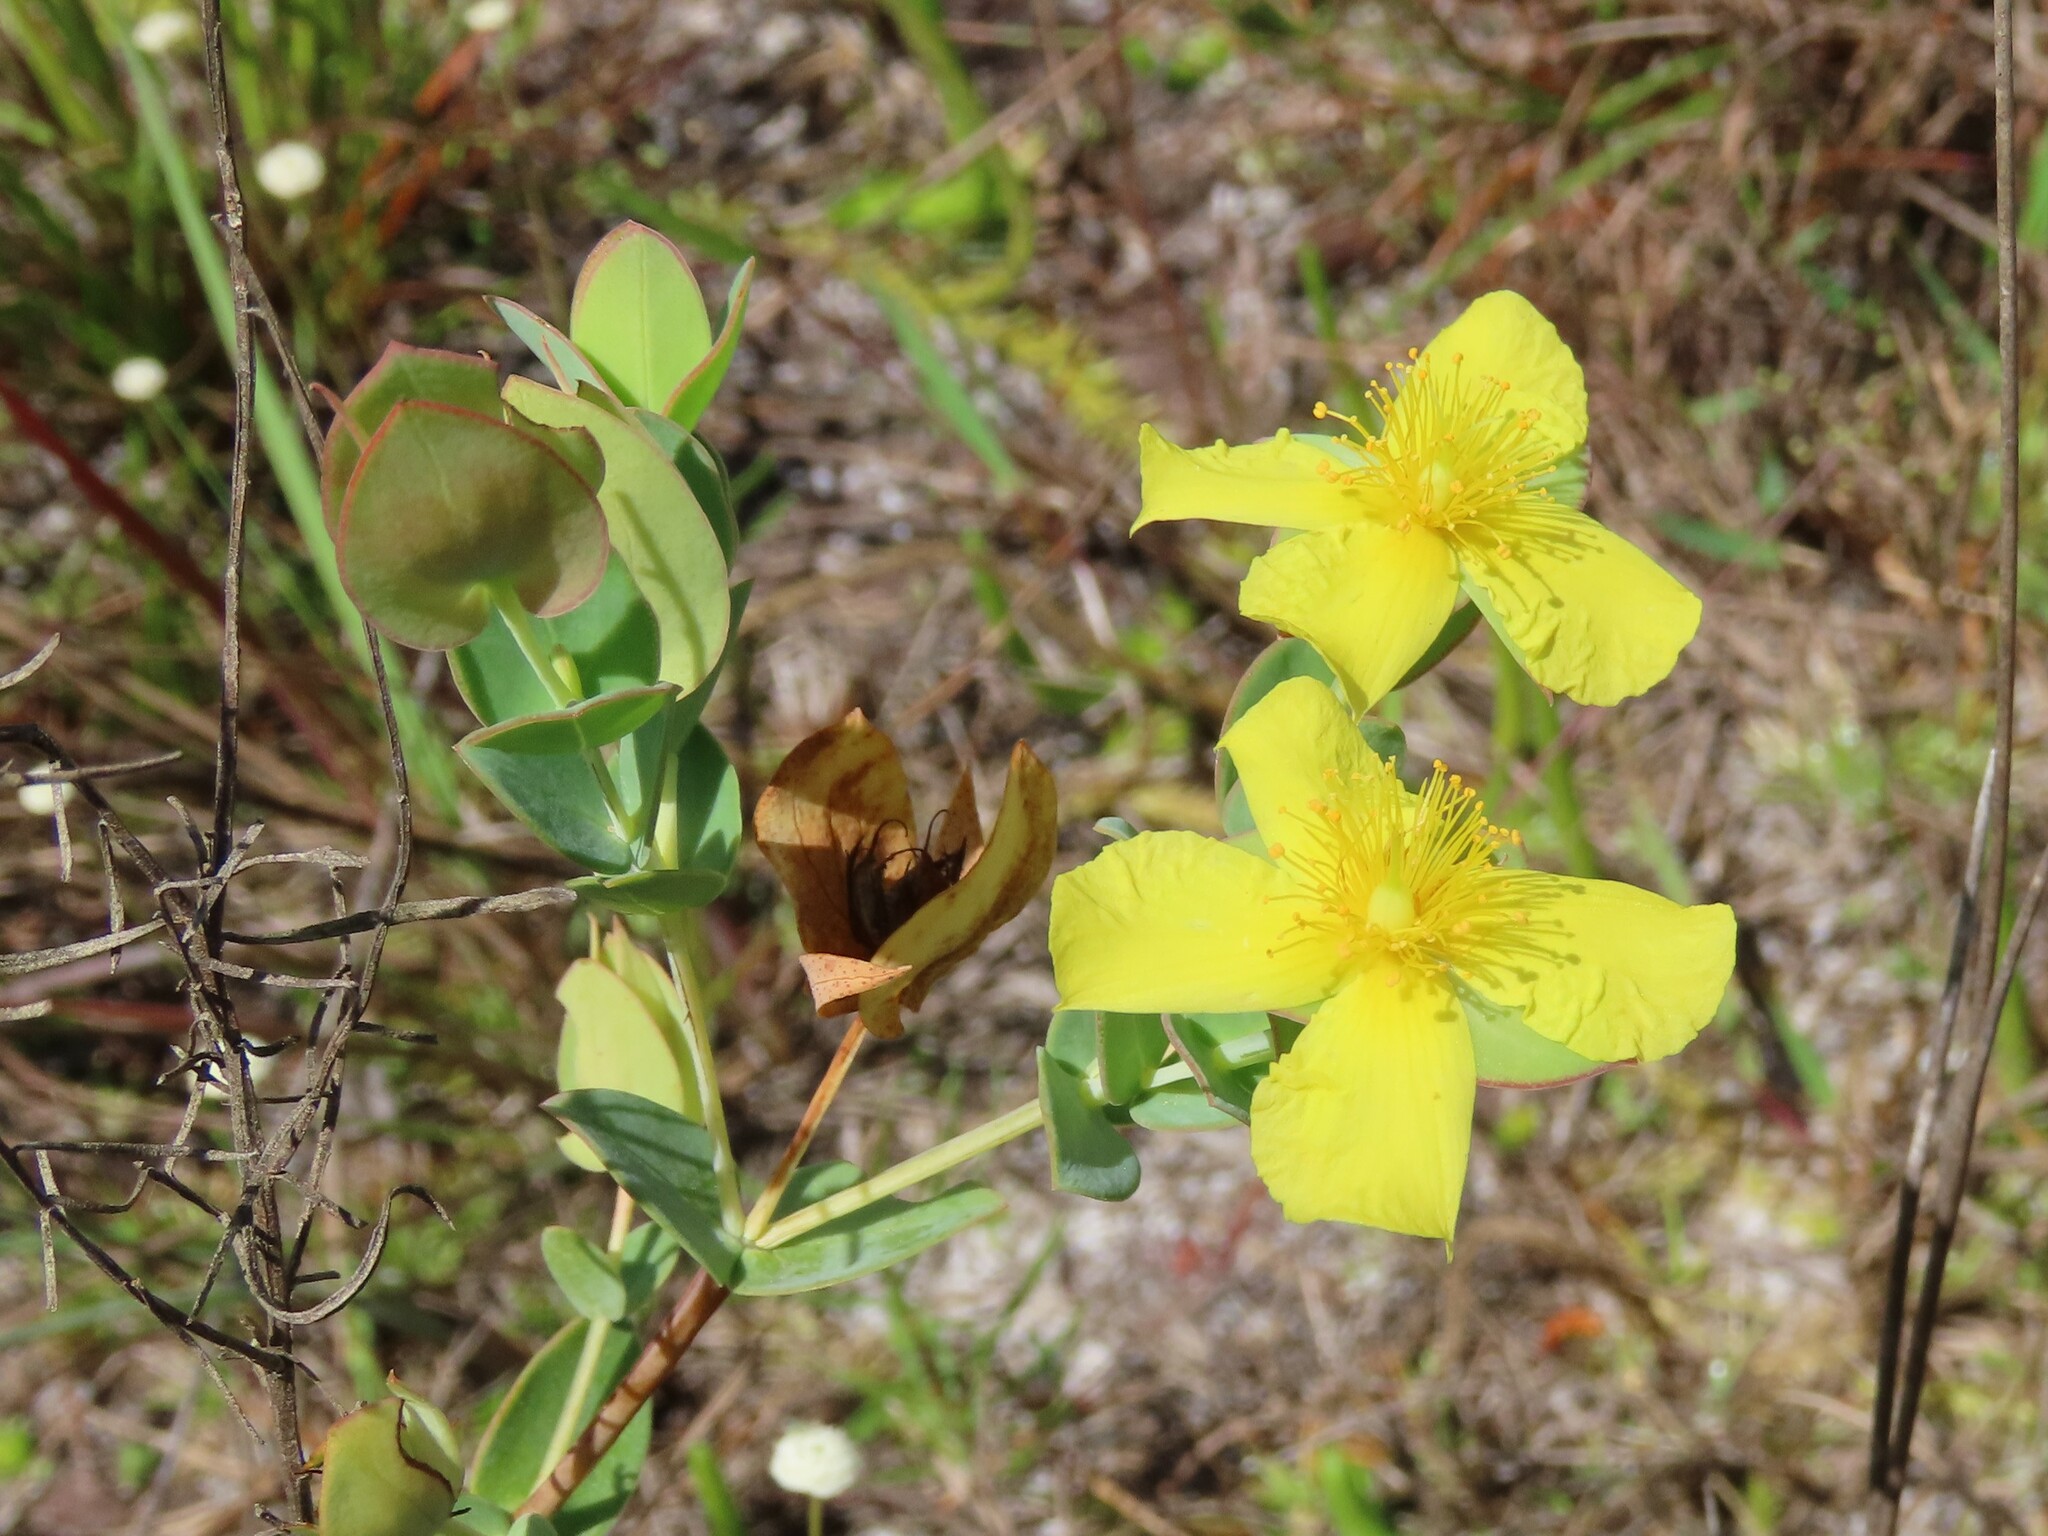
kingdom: Plantae
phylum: Tracheophyta
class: Magnoliopsida
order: Malpighiales
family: Hypericaceae
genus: Hypericum
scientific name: Hypericum tetrapetalum
